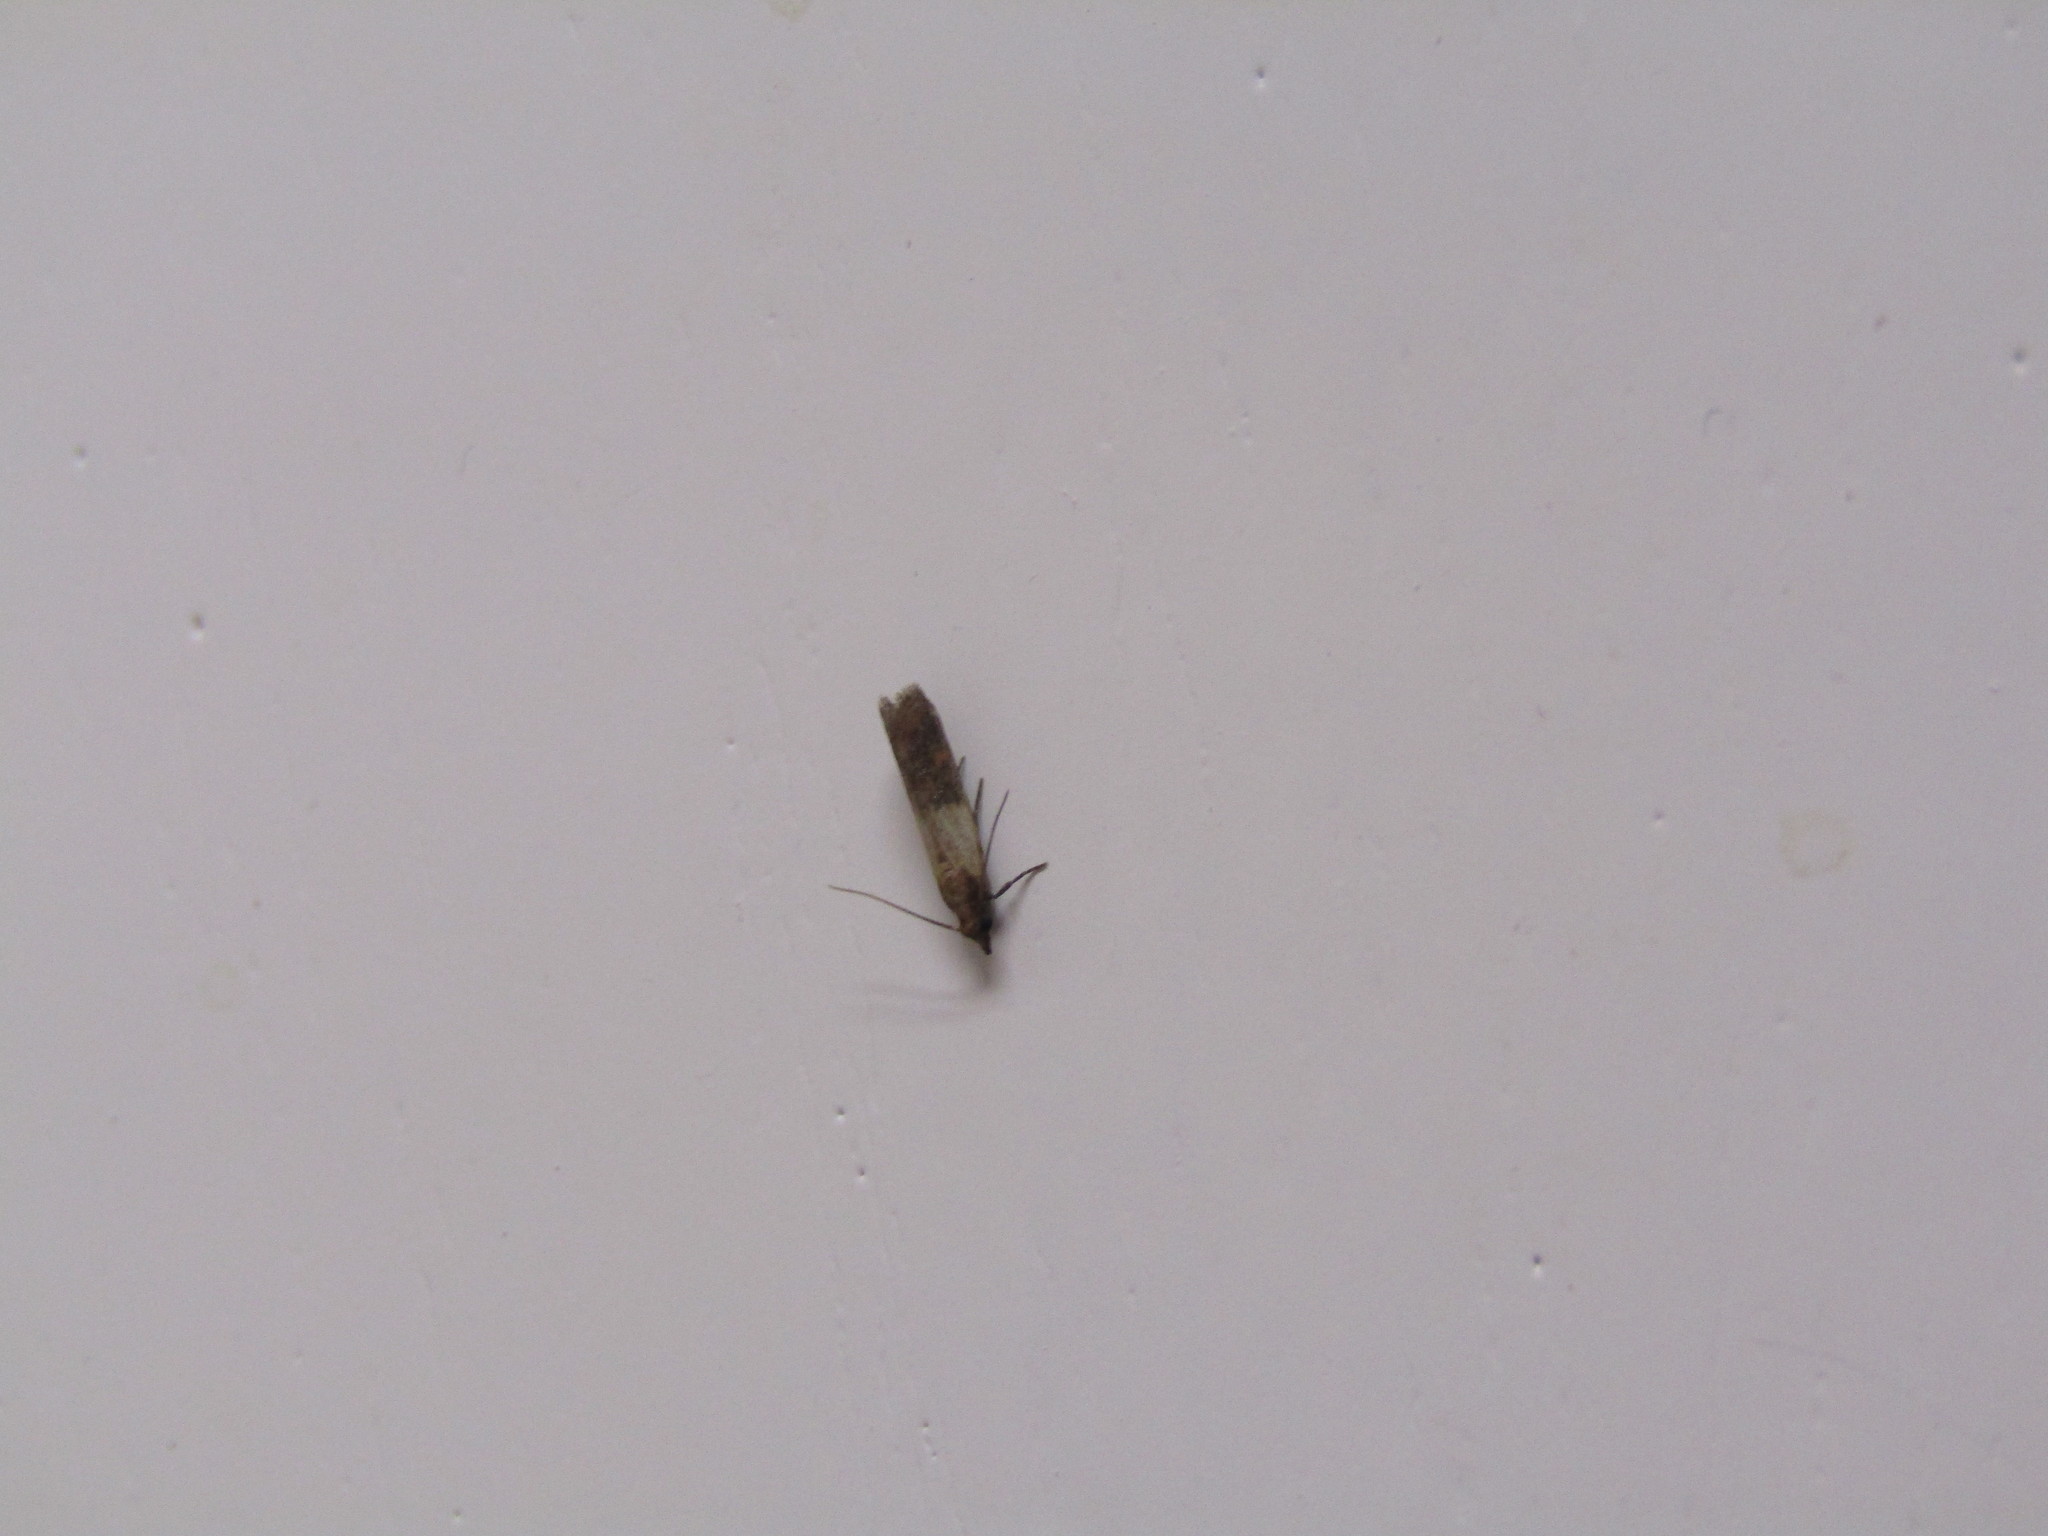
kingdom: Animalia
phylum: Arthropoda
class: Insecta
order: Lepidoptera
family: Pyralidae
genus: Plodia
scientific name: Plodia interpunctella
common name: Indian meal moth
